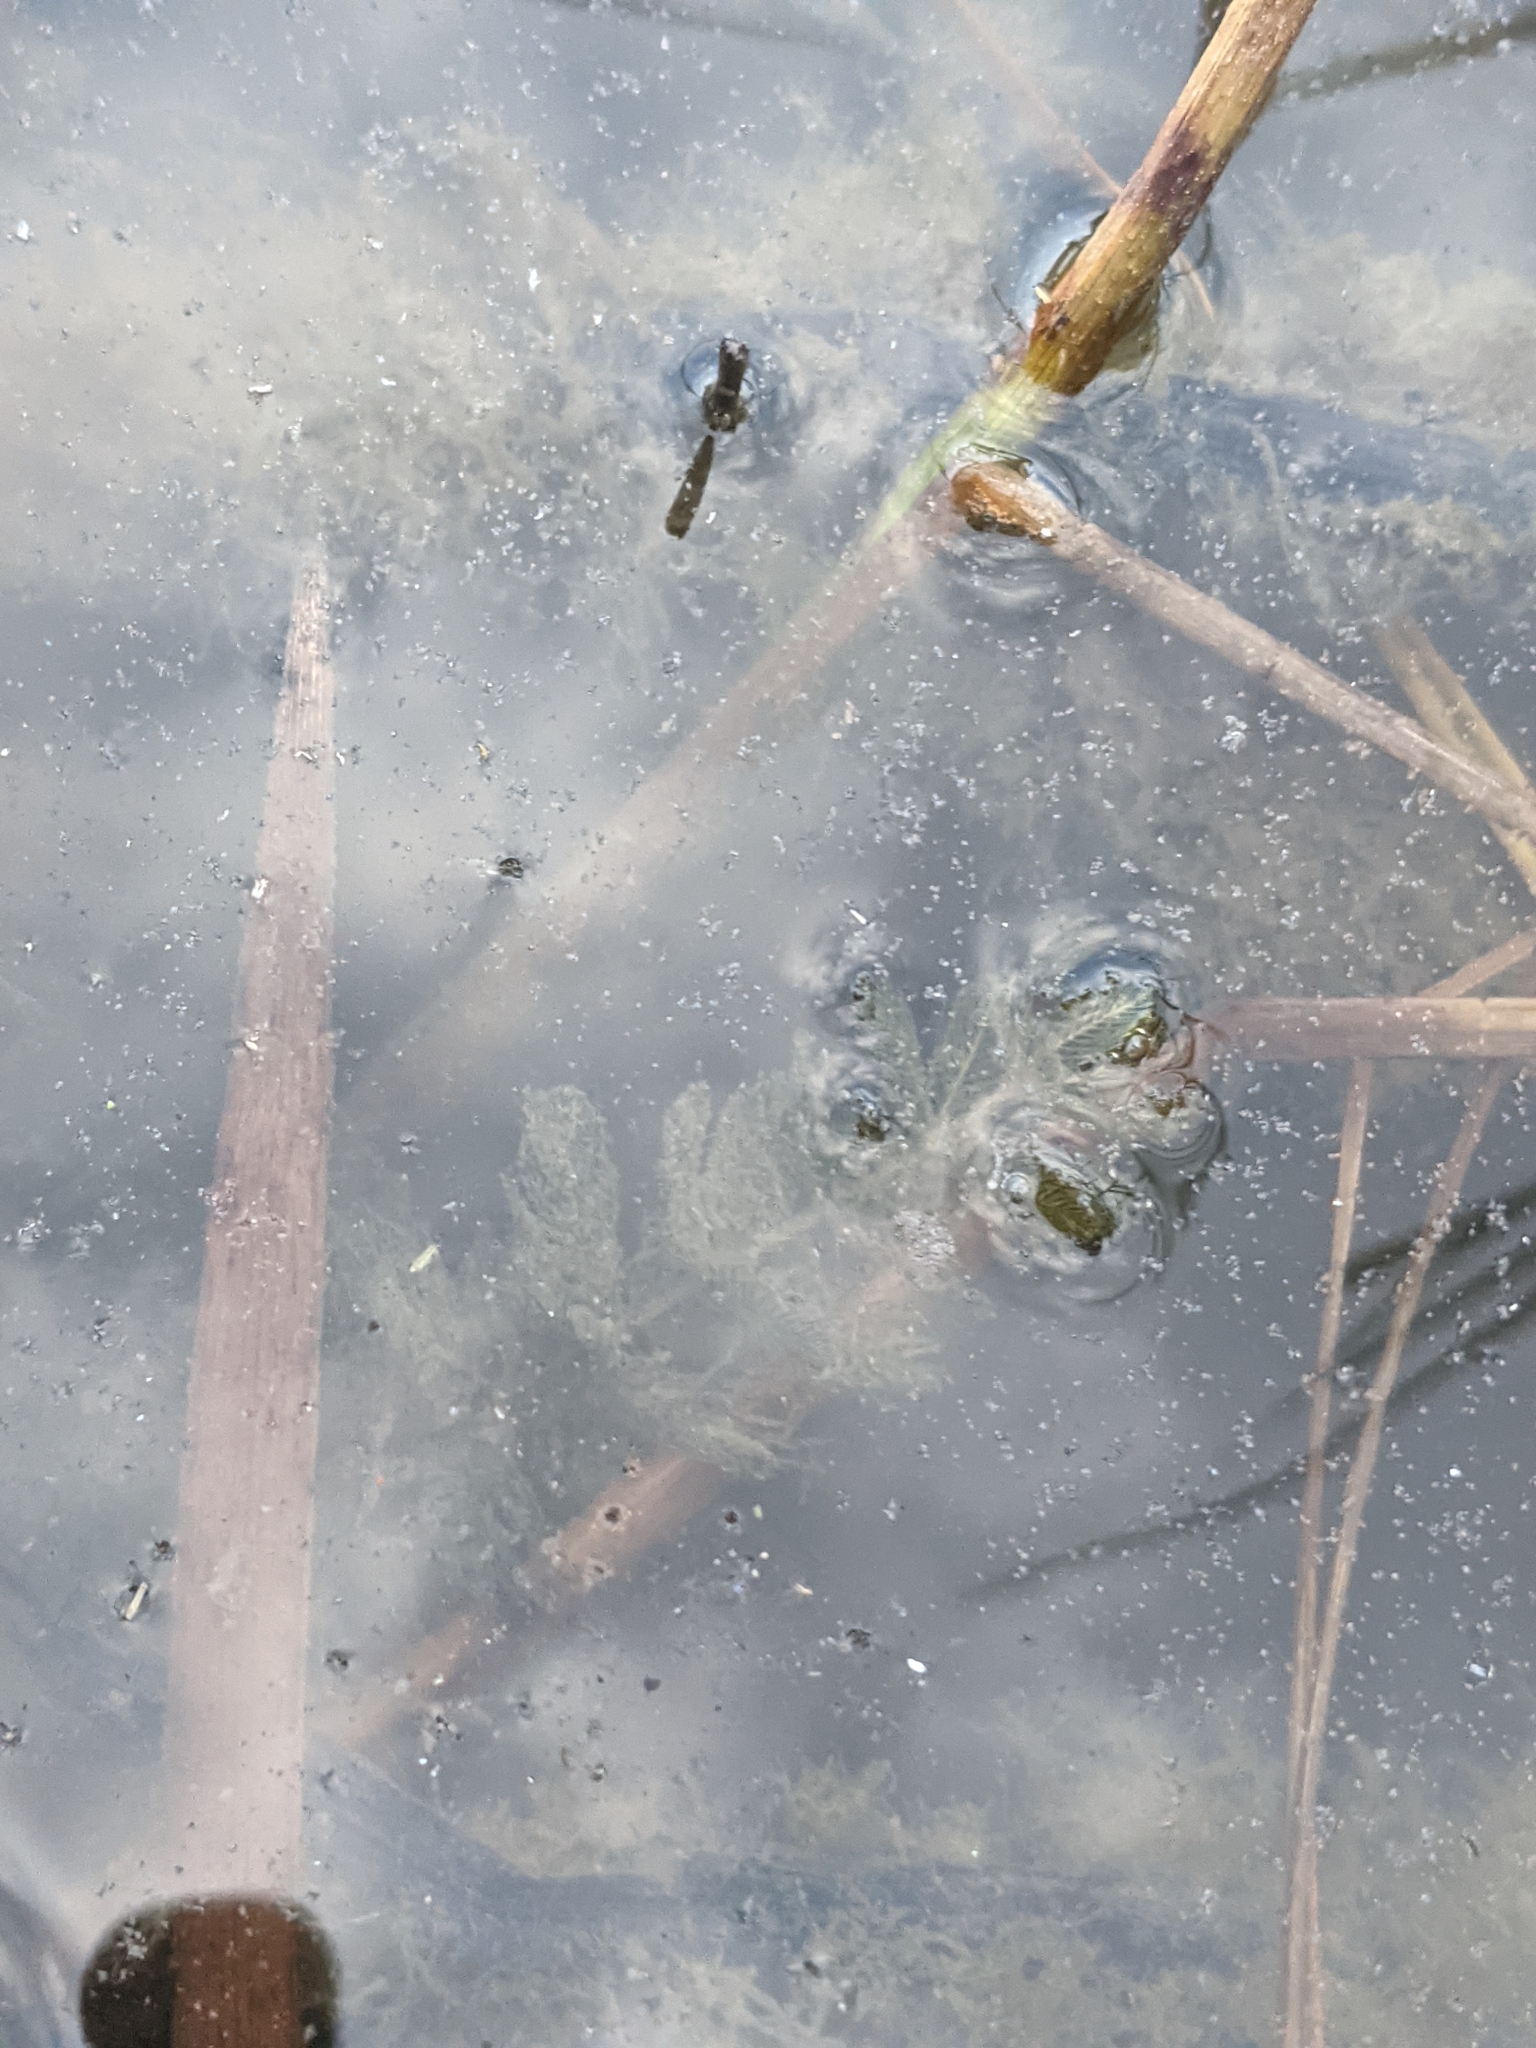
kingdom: Plantae
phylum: Tracheophyta
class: Magnoliopsida
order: Saxifragales
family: Haloragaceae
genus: Myriophyllum
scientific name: Myriophyllum spicatum
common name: Spiked water-milfoil
